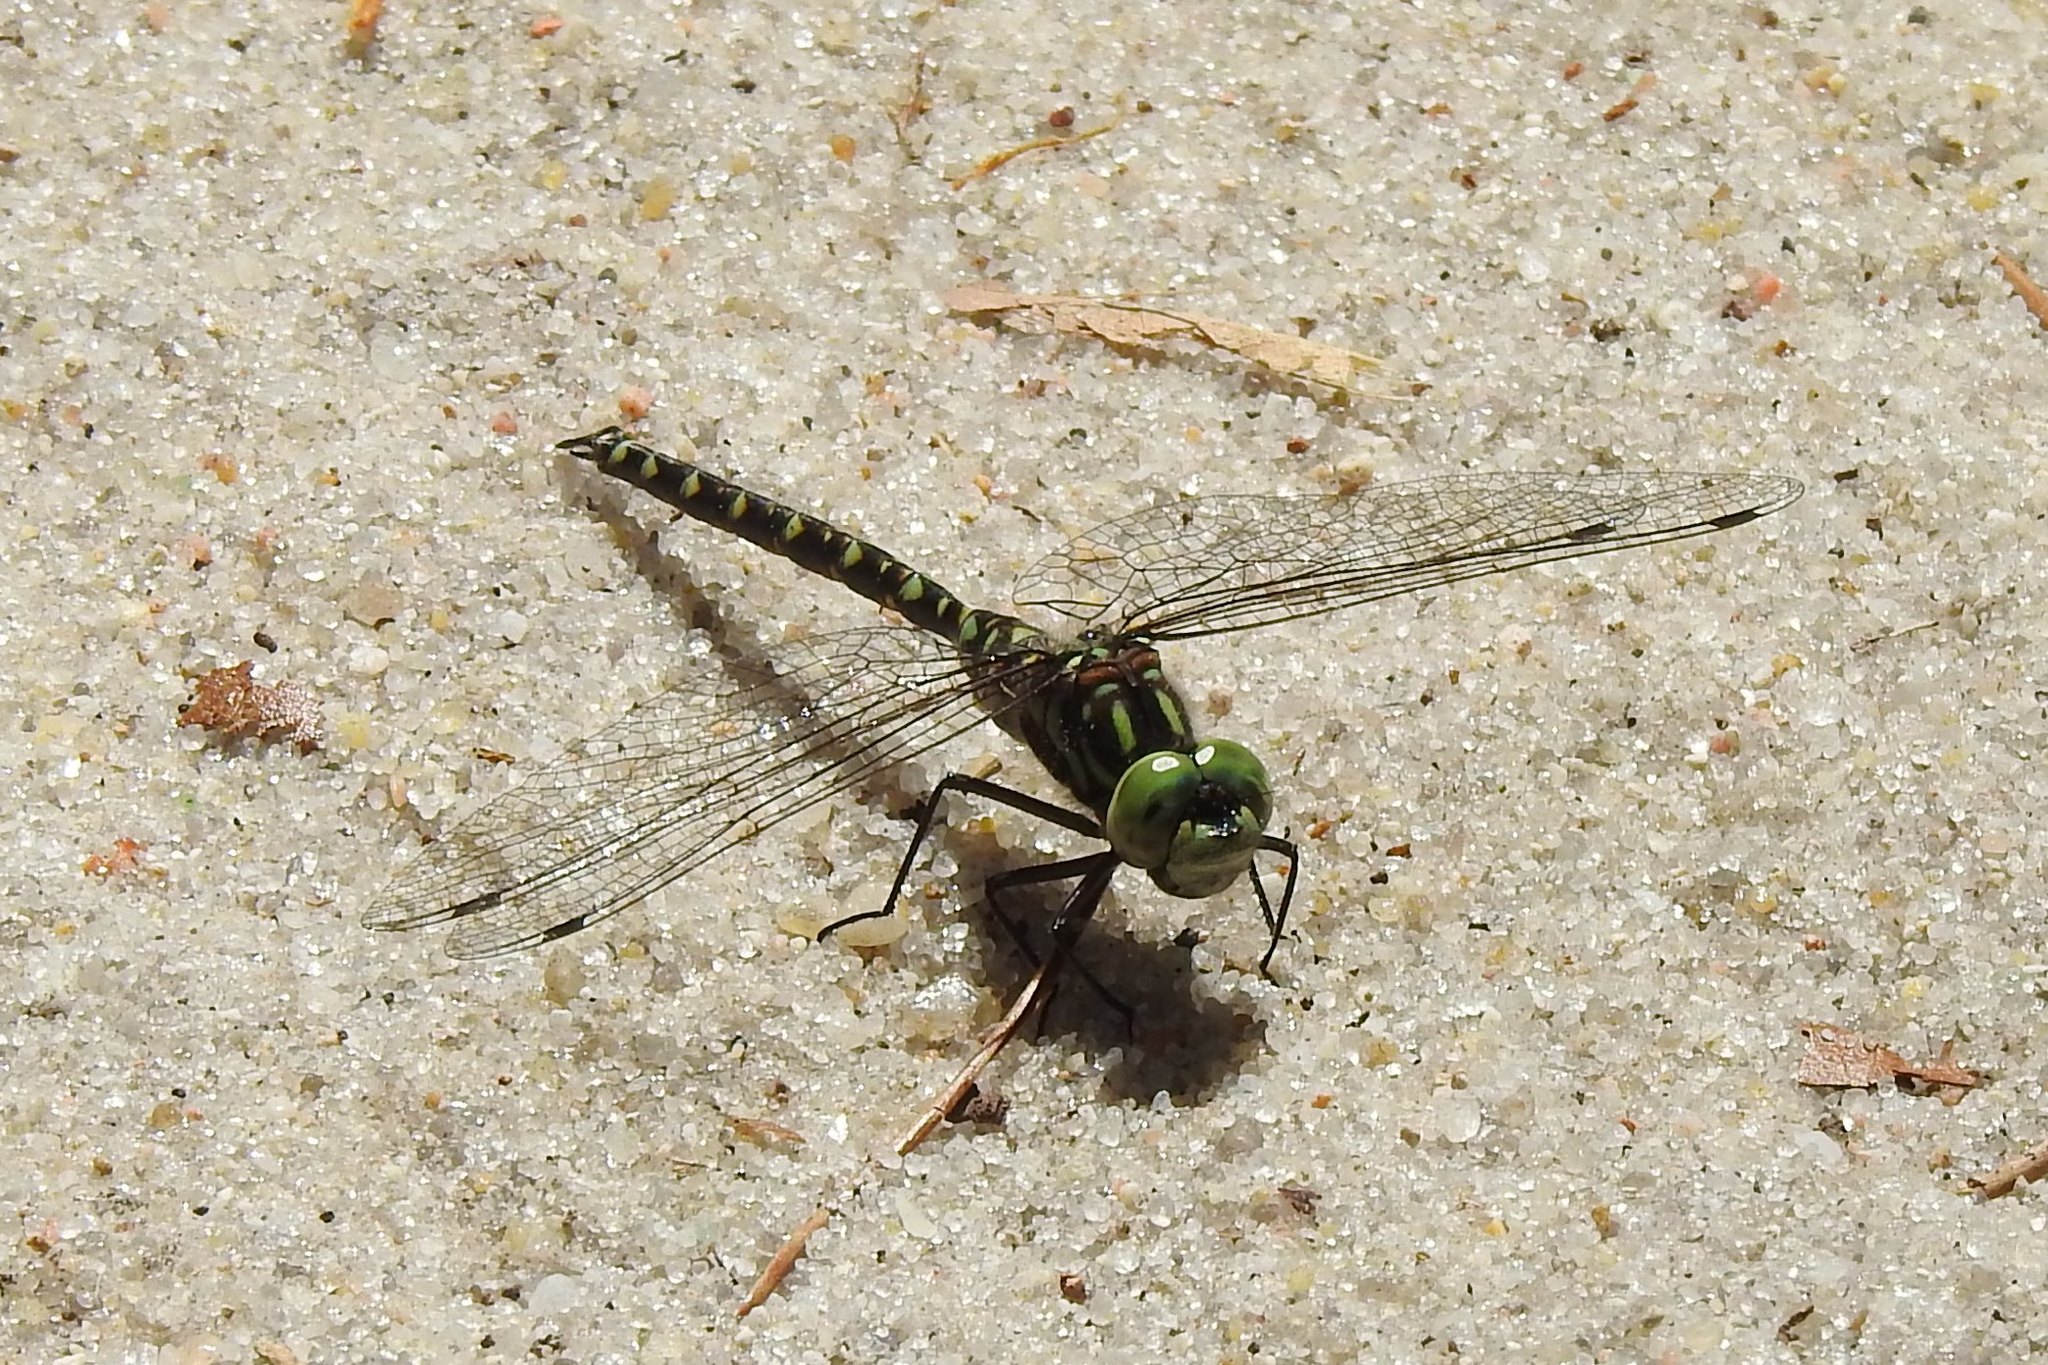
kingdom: Animalia
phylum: Arthropoda
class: Insecta
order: Odonata
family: Aeshnidae
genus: Gomphaeschna
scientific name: Gomphaeschna furcillata
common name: Harlequin darner
